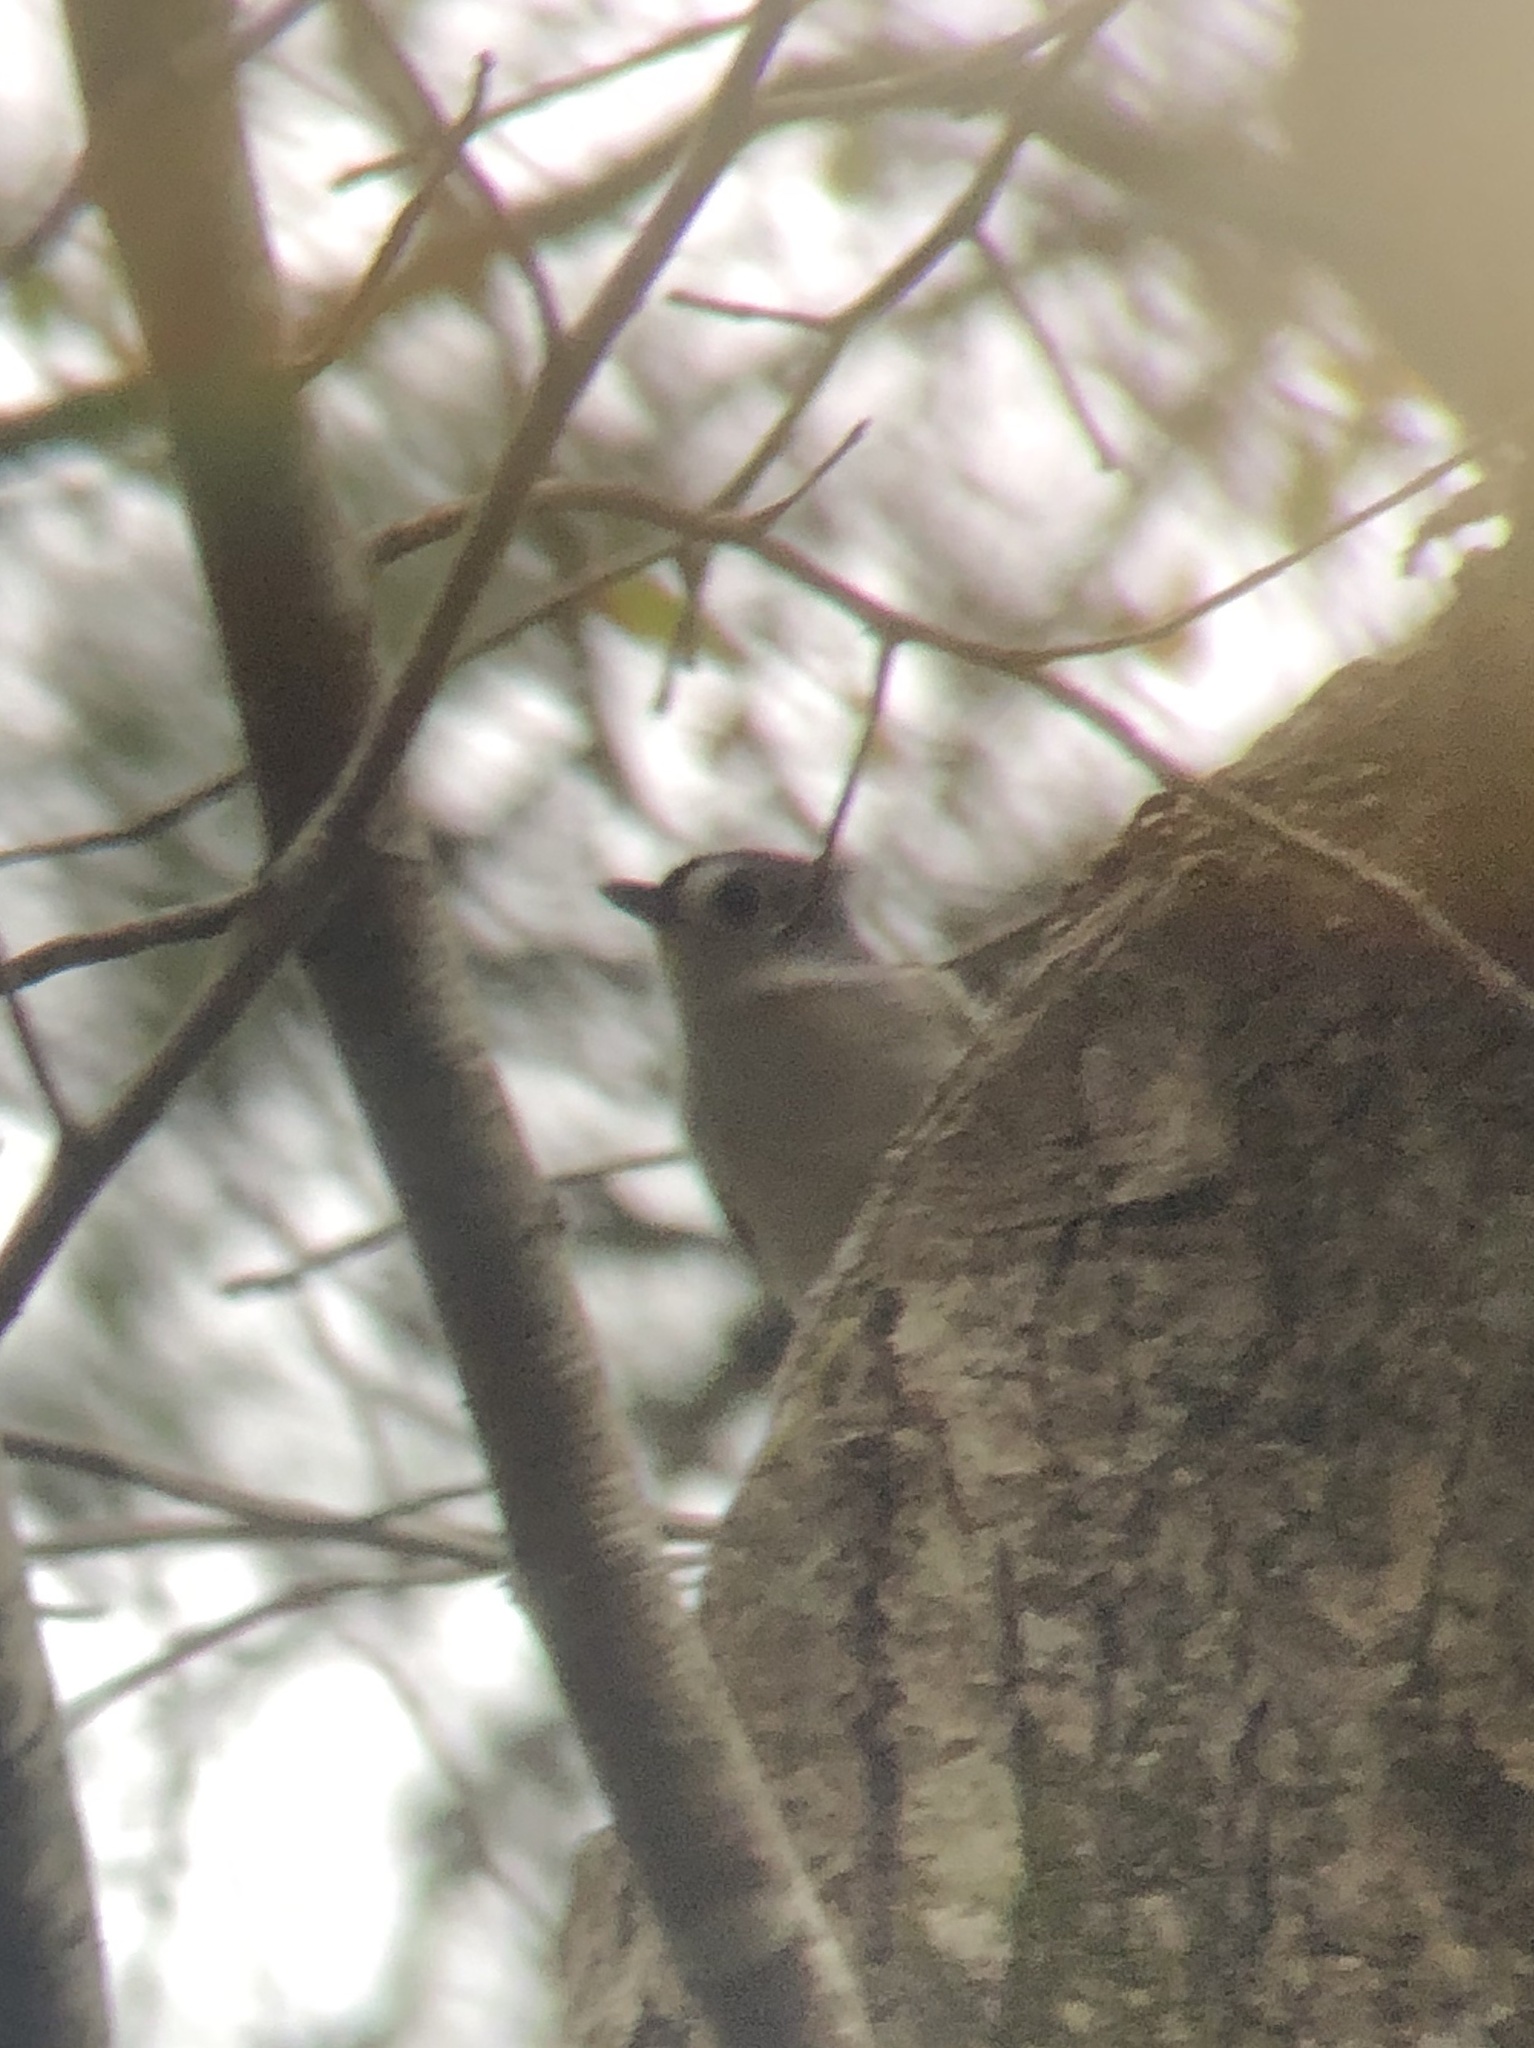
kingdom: Animalia
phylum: Chordata
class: Aves
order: Passeriformes
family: Paridae
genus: Baeolophus
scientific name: Baeolophus bicolor
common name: Tufted titmouse
